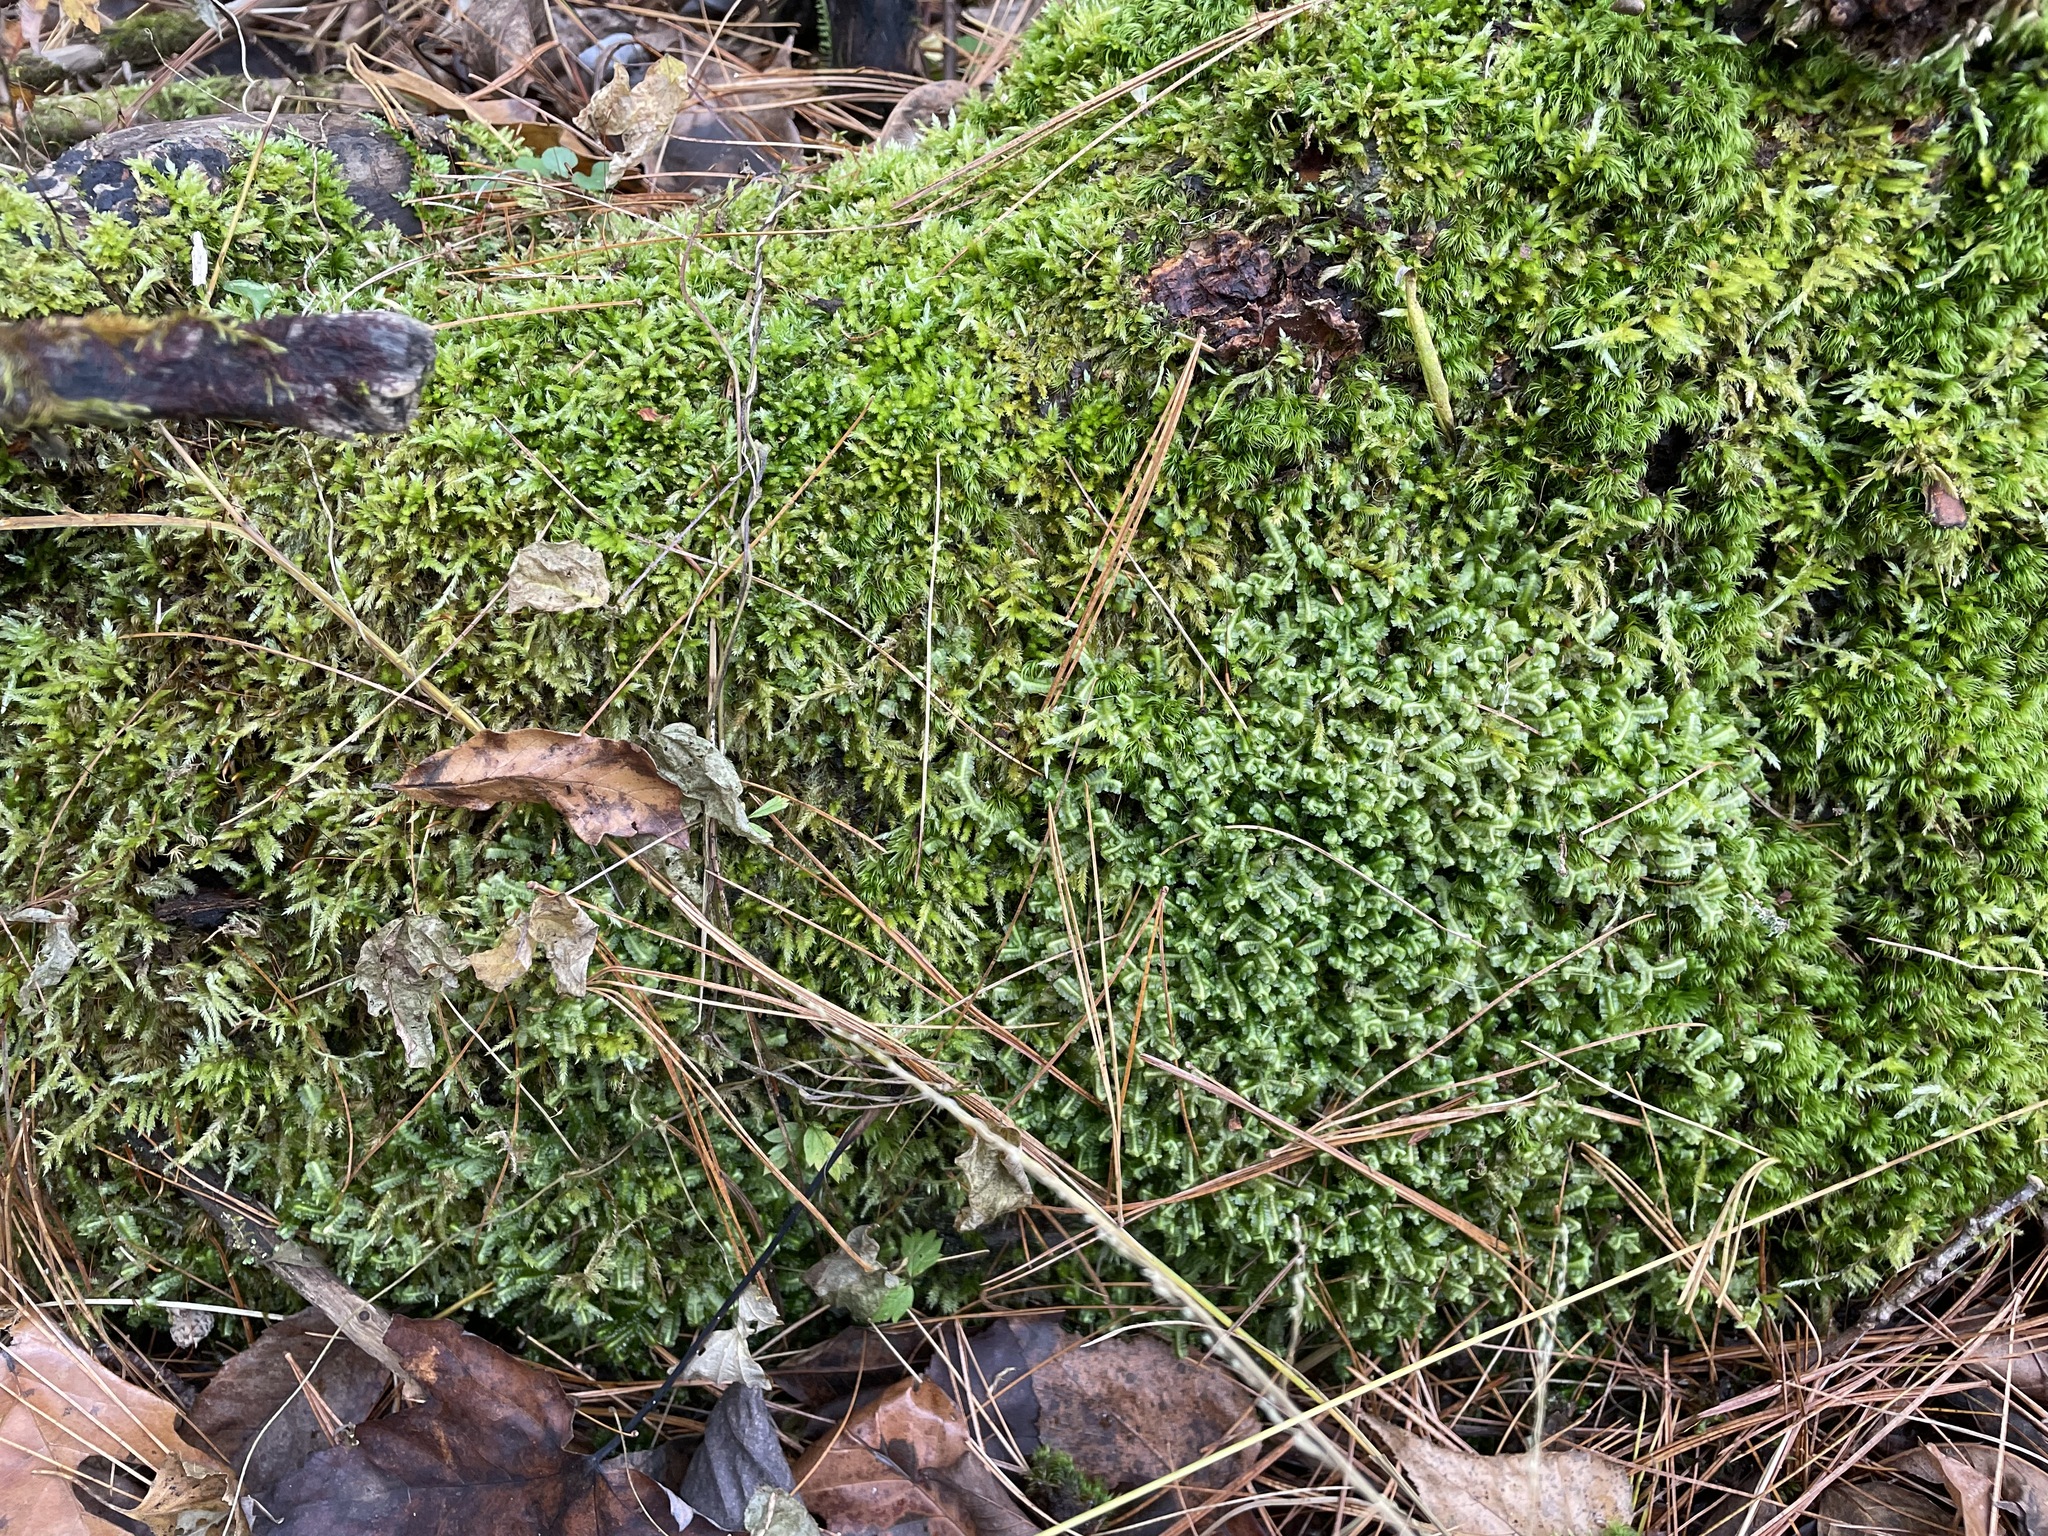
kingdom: Plantae
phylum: Marchantiophyta
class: Jungermanniopsida
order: Jungermanniales
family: Lepidoziaceae
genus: Bazzania
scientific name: Bazzania trilobata
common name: Three-lobed whipwort
